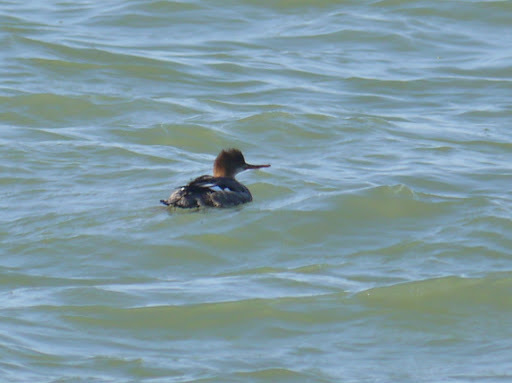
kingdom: Animalia
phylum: Chordata
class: Aves
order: Anseriformes
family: Anatidae
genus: Mergus
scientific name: Mergus serrator
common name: Red-breasted merganser
